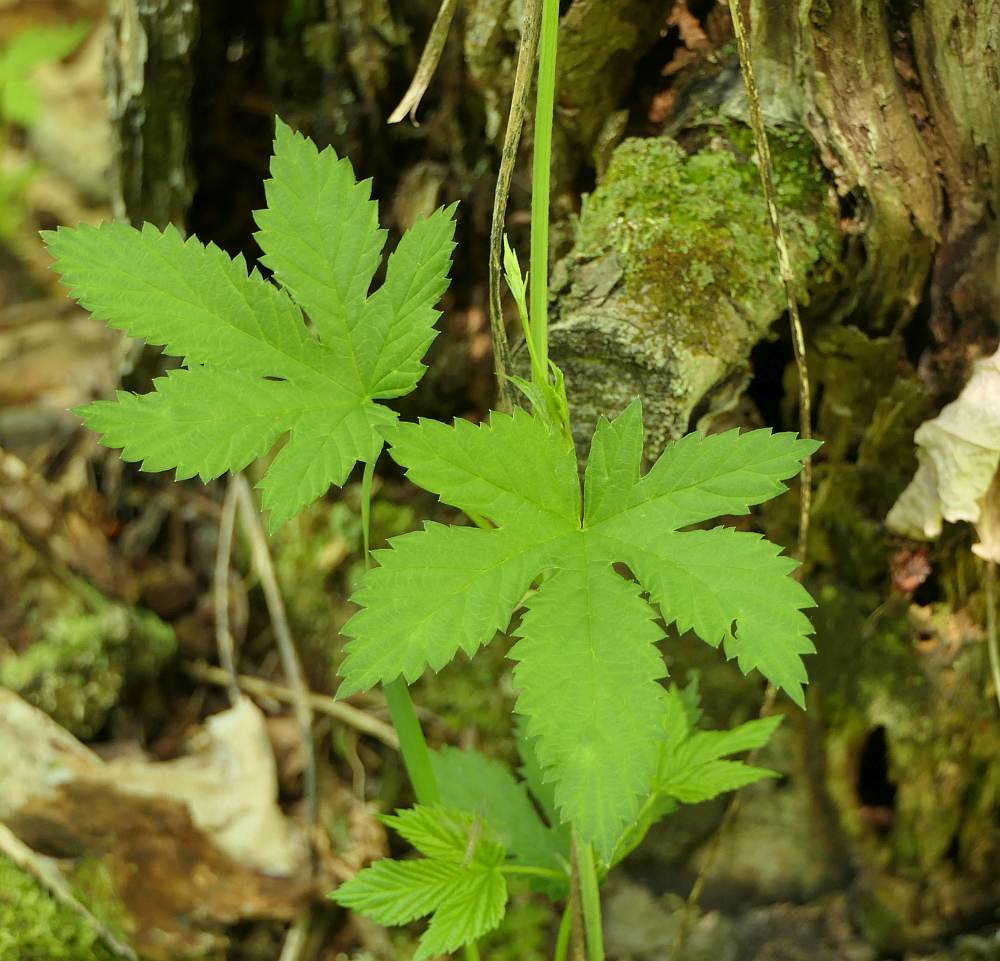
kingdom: Plantae
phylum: Tracheophyta
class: Magnoliopsida
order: Rosales
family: Cannabaceae
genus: Humulus
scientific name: Humulus lupulus
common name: Hop
